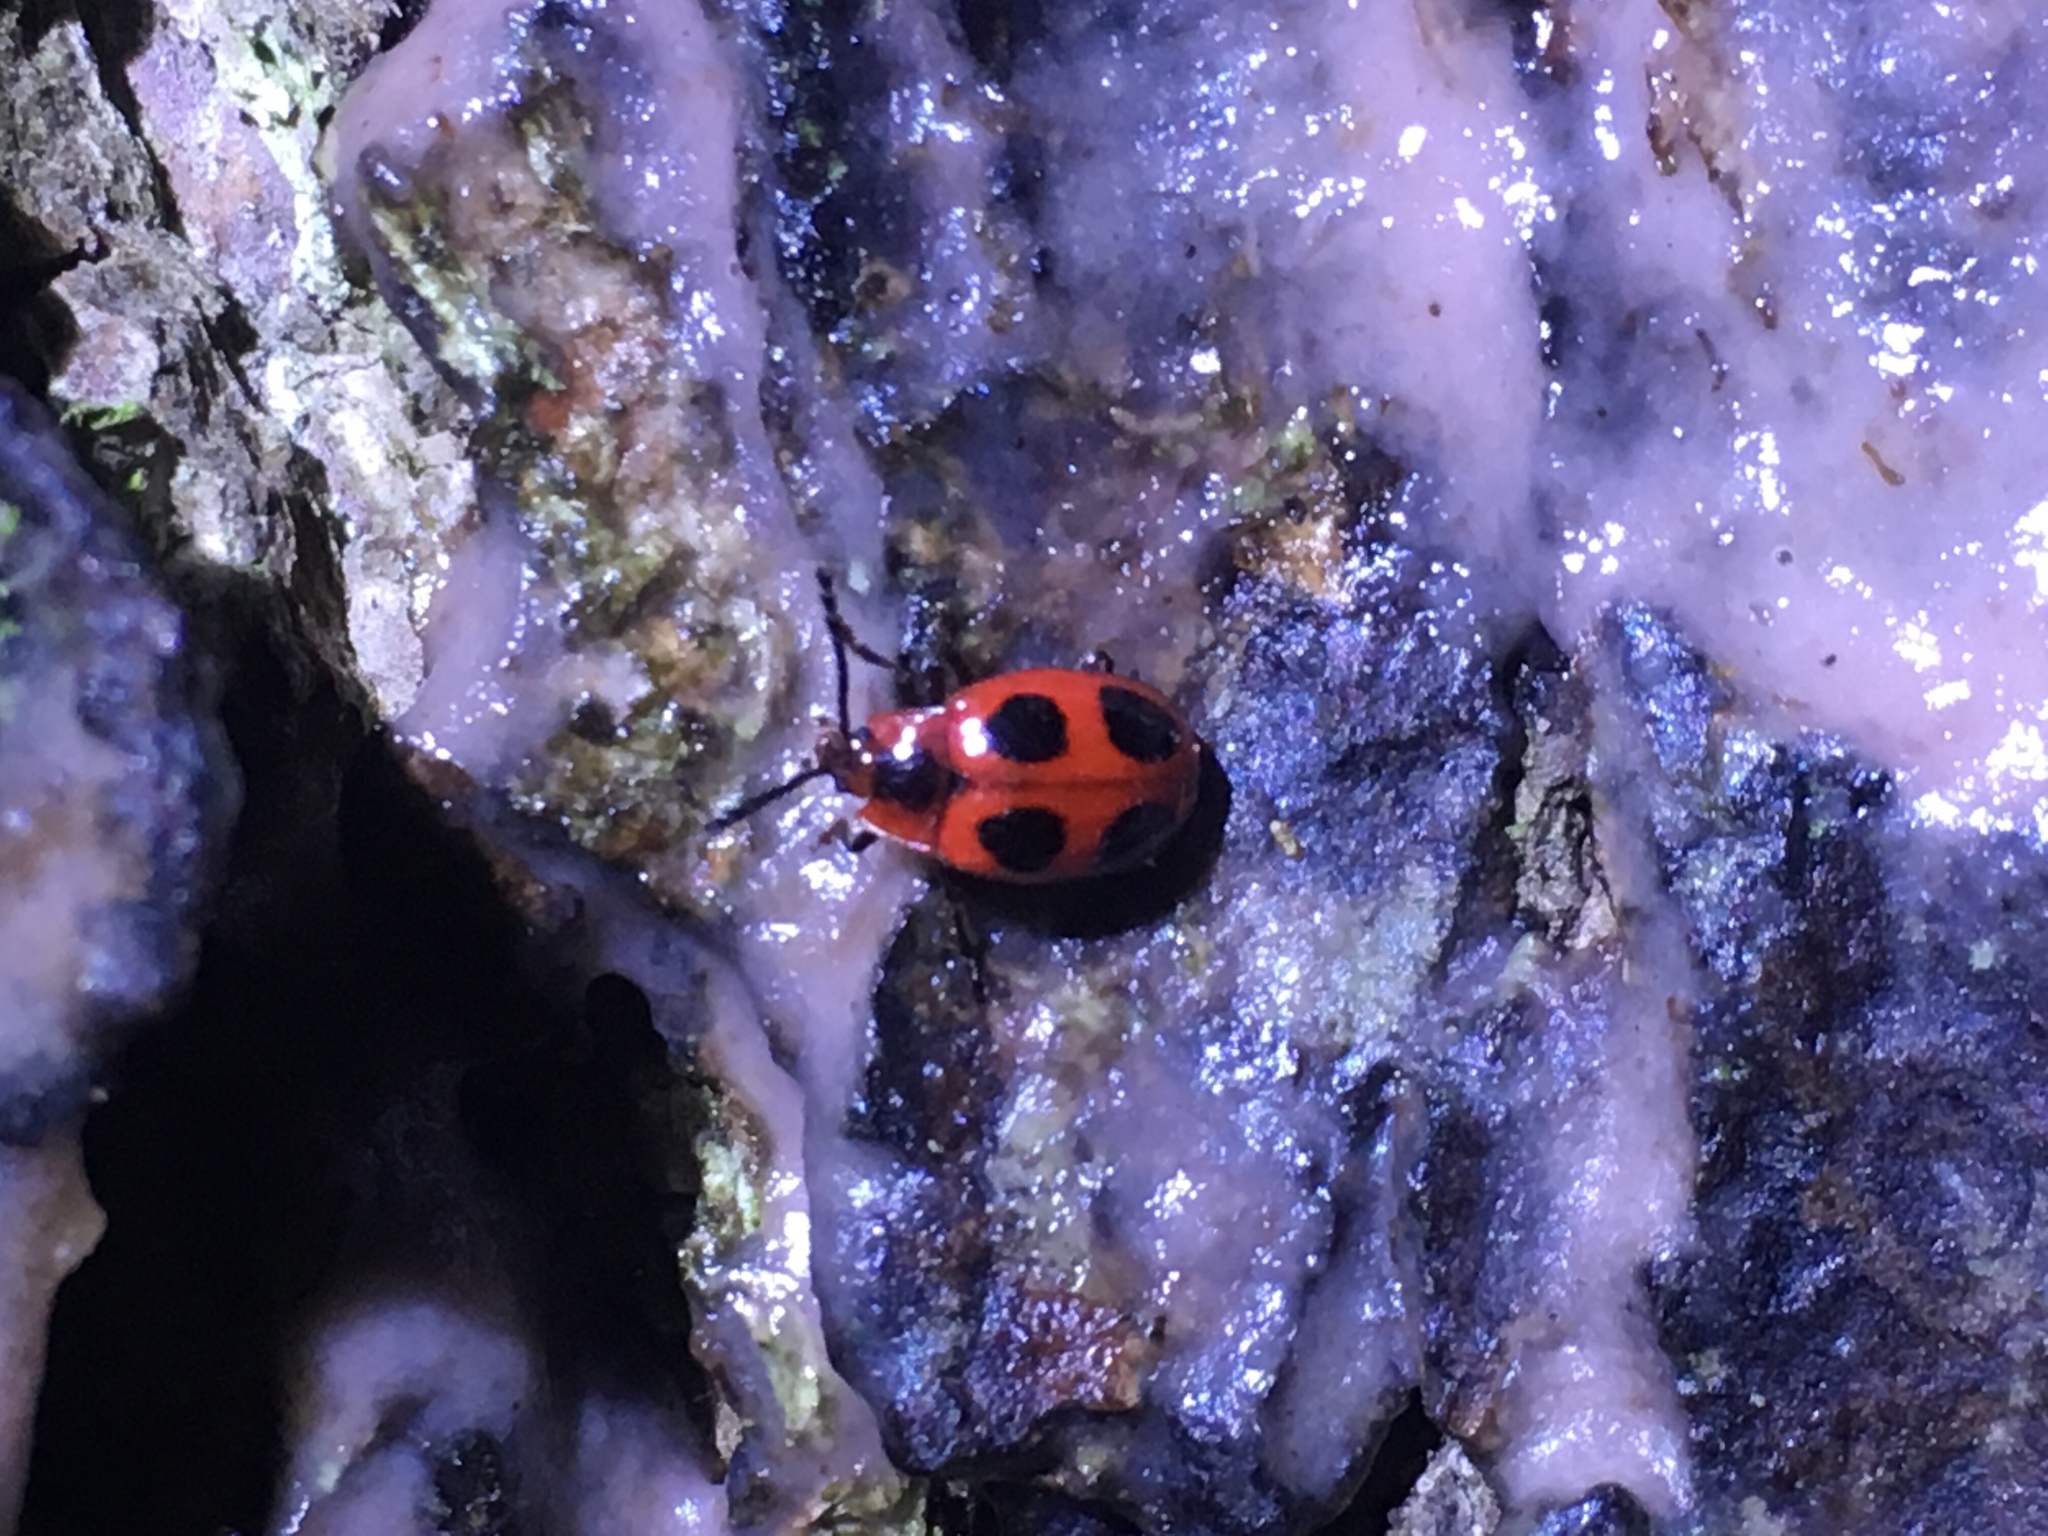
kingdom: Animalia
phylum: Arthropoda
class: Insecta
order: Coleoptera
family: Endomychidae
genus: Endomychus
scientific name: Endomychus coccineus
